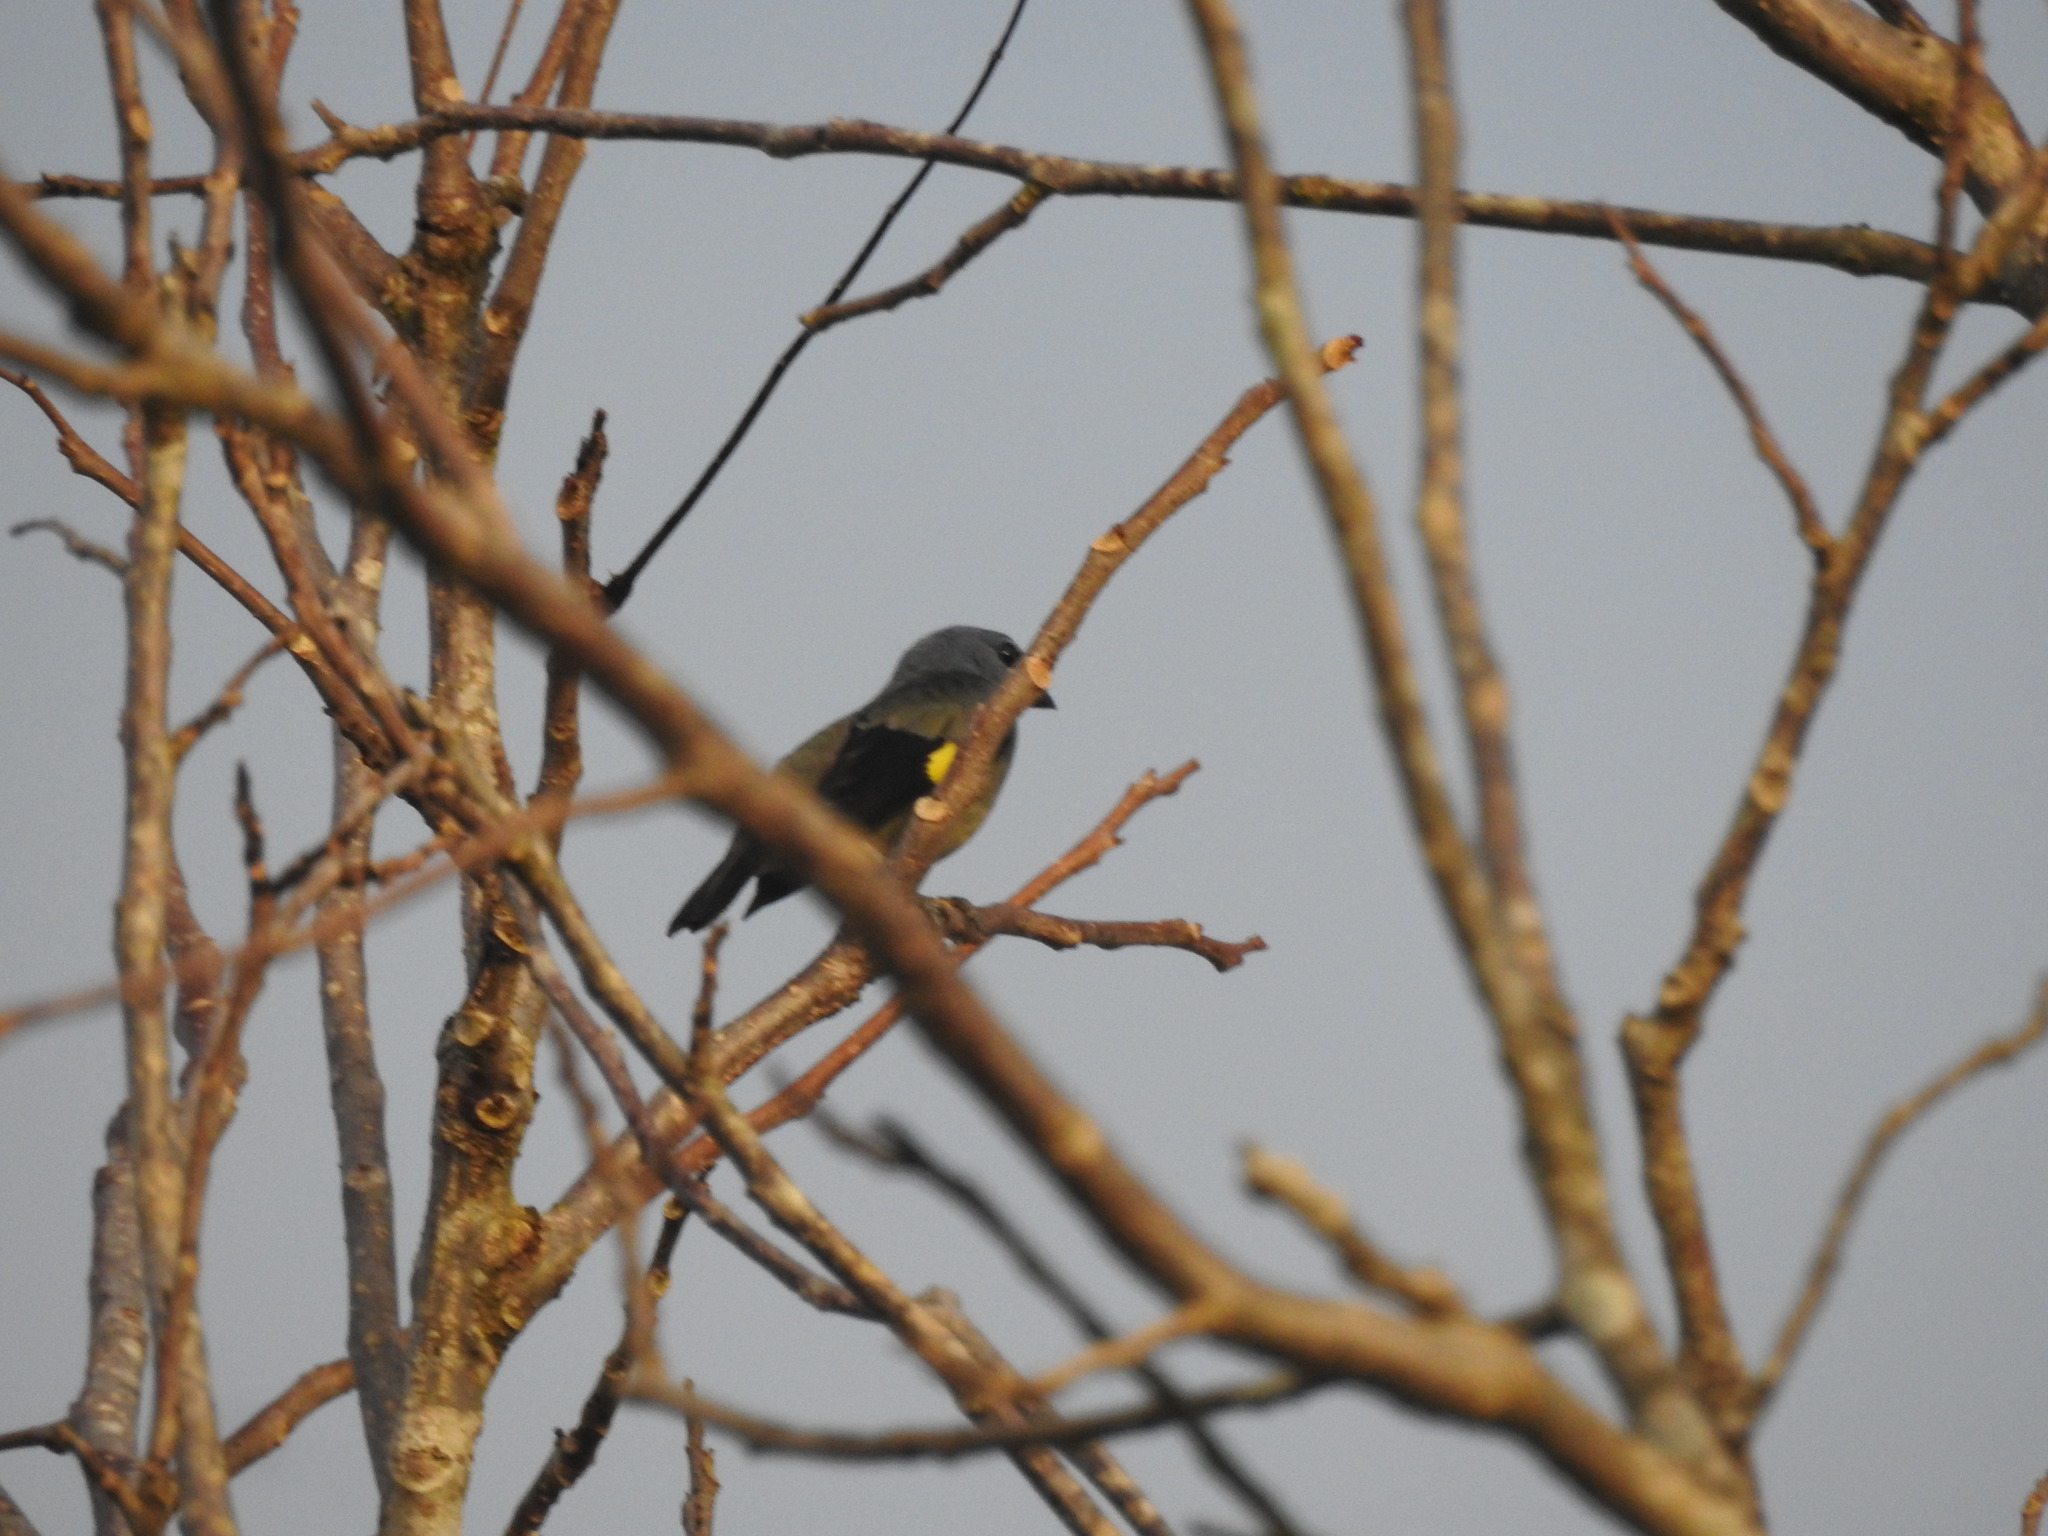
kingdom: Animalia
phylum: Chordata
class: Aves
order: Passeriformes
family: Thraupidae
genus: Thraupis
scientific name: Thraupis abbas
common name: Yellow-winged tanager
